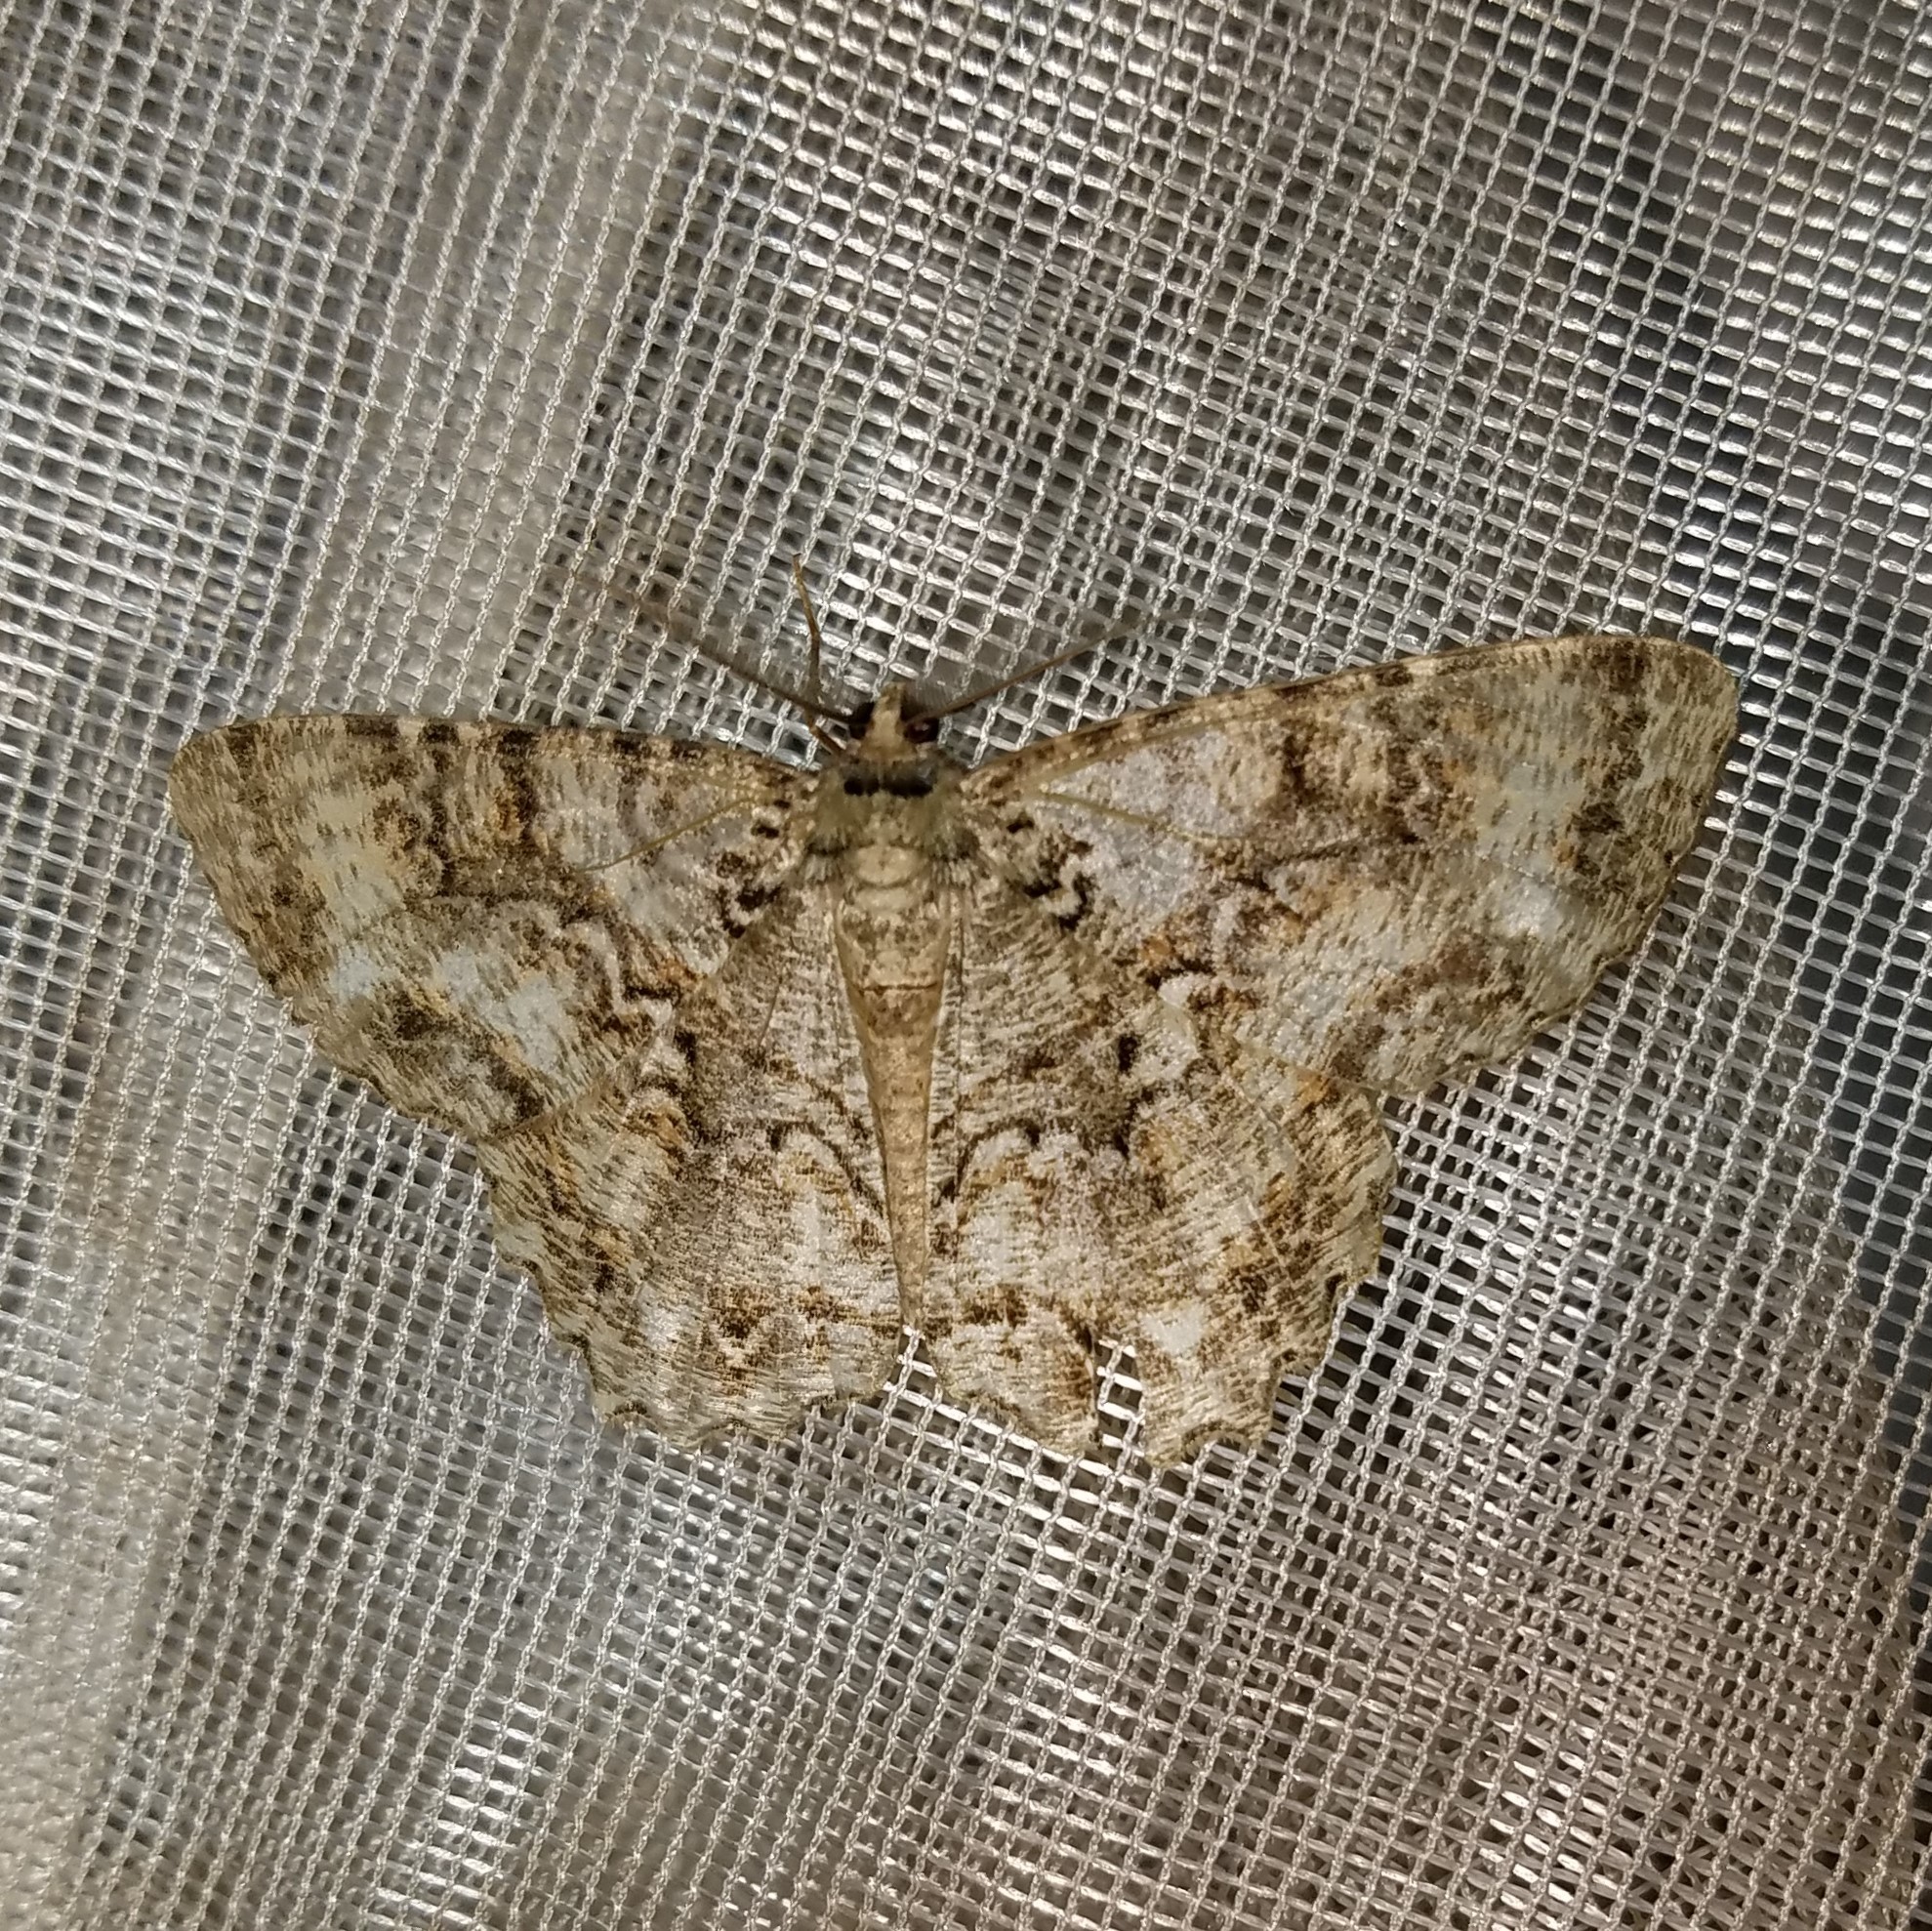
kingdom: Animalia
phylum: Arthropoda
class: Insecta
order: Lepidoptera
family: Geometridae
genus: Epimecis
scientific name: Epimecis hortaria
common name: Tulip-tree beauty
